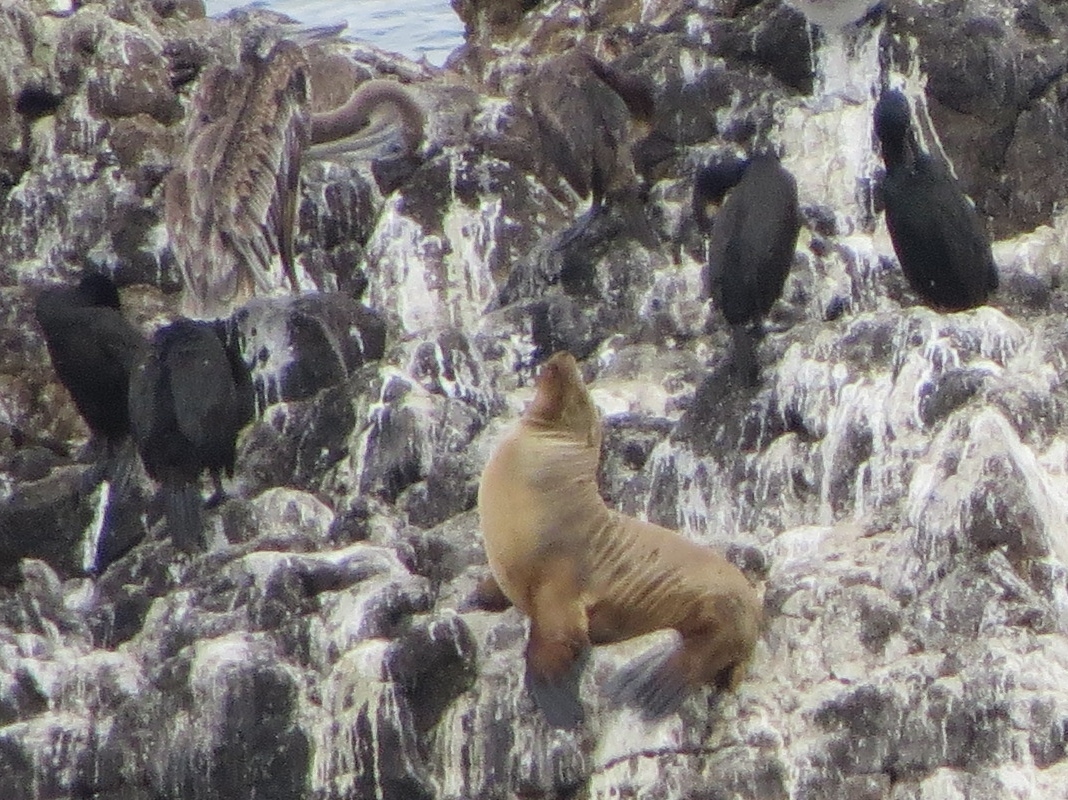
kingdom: Animalia
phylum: Chordata
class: Mammalia
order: Carnivora
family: Otariidae
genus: Zalophus
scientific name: Zalophus californianus
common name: California sea lion
